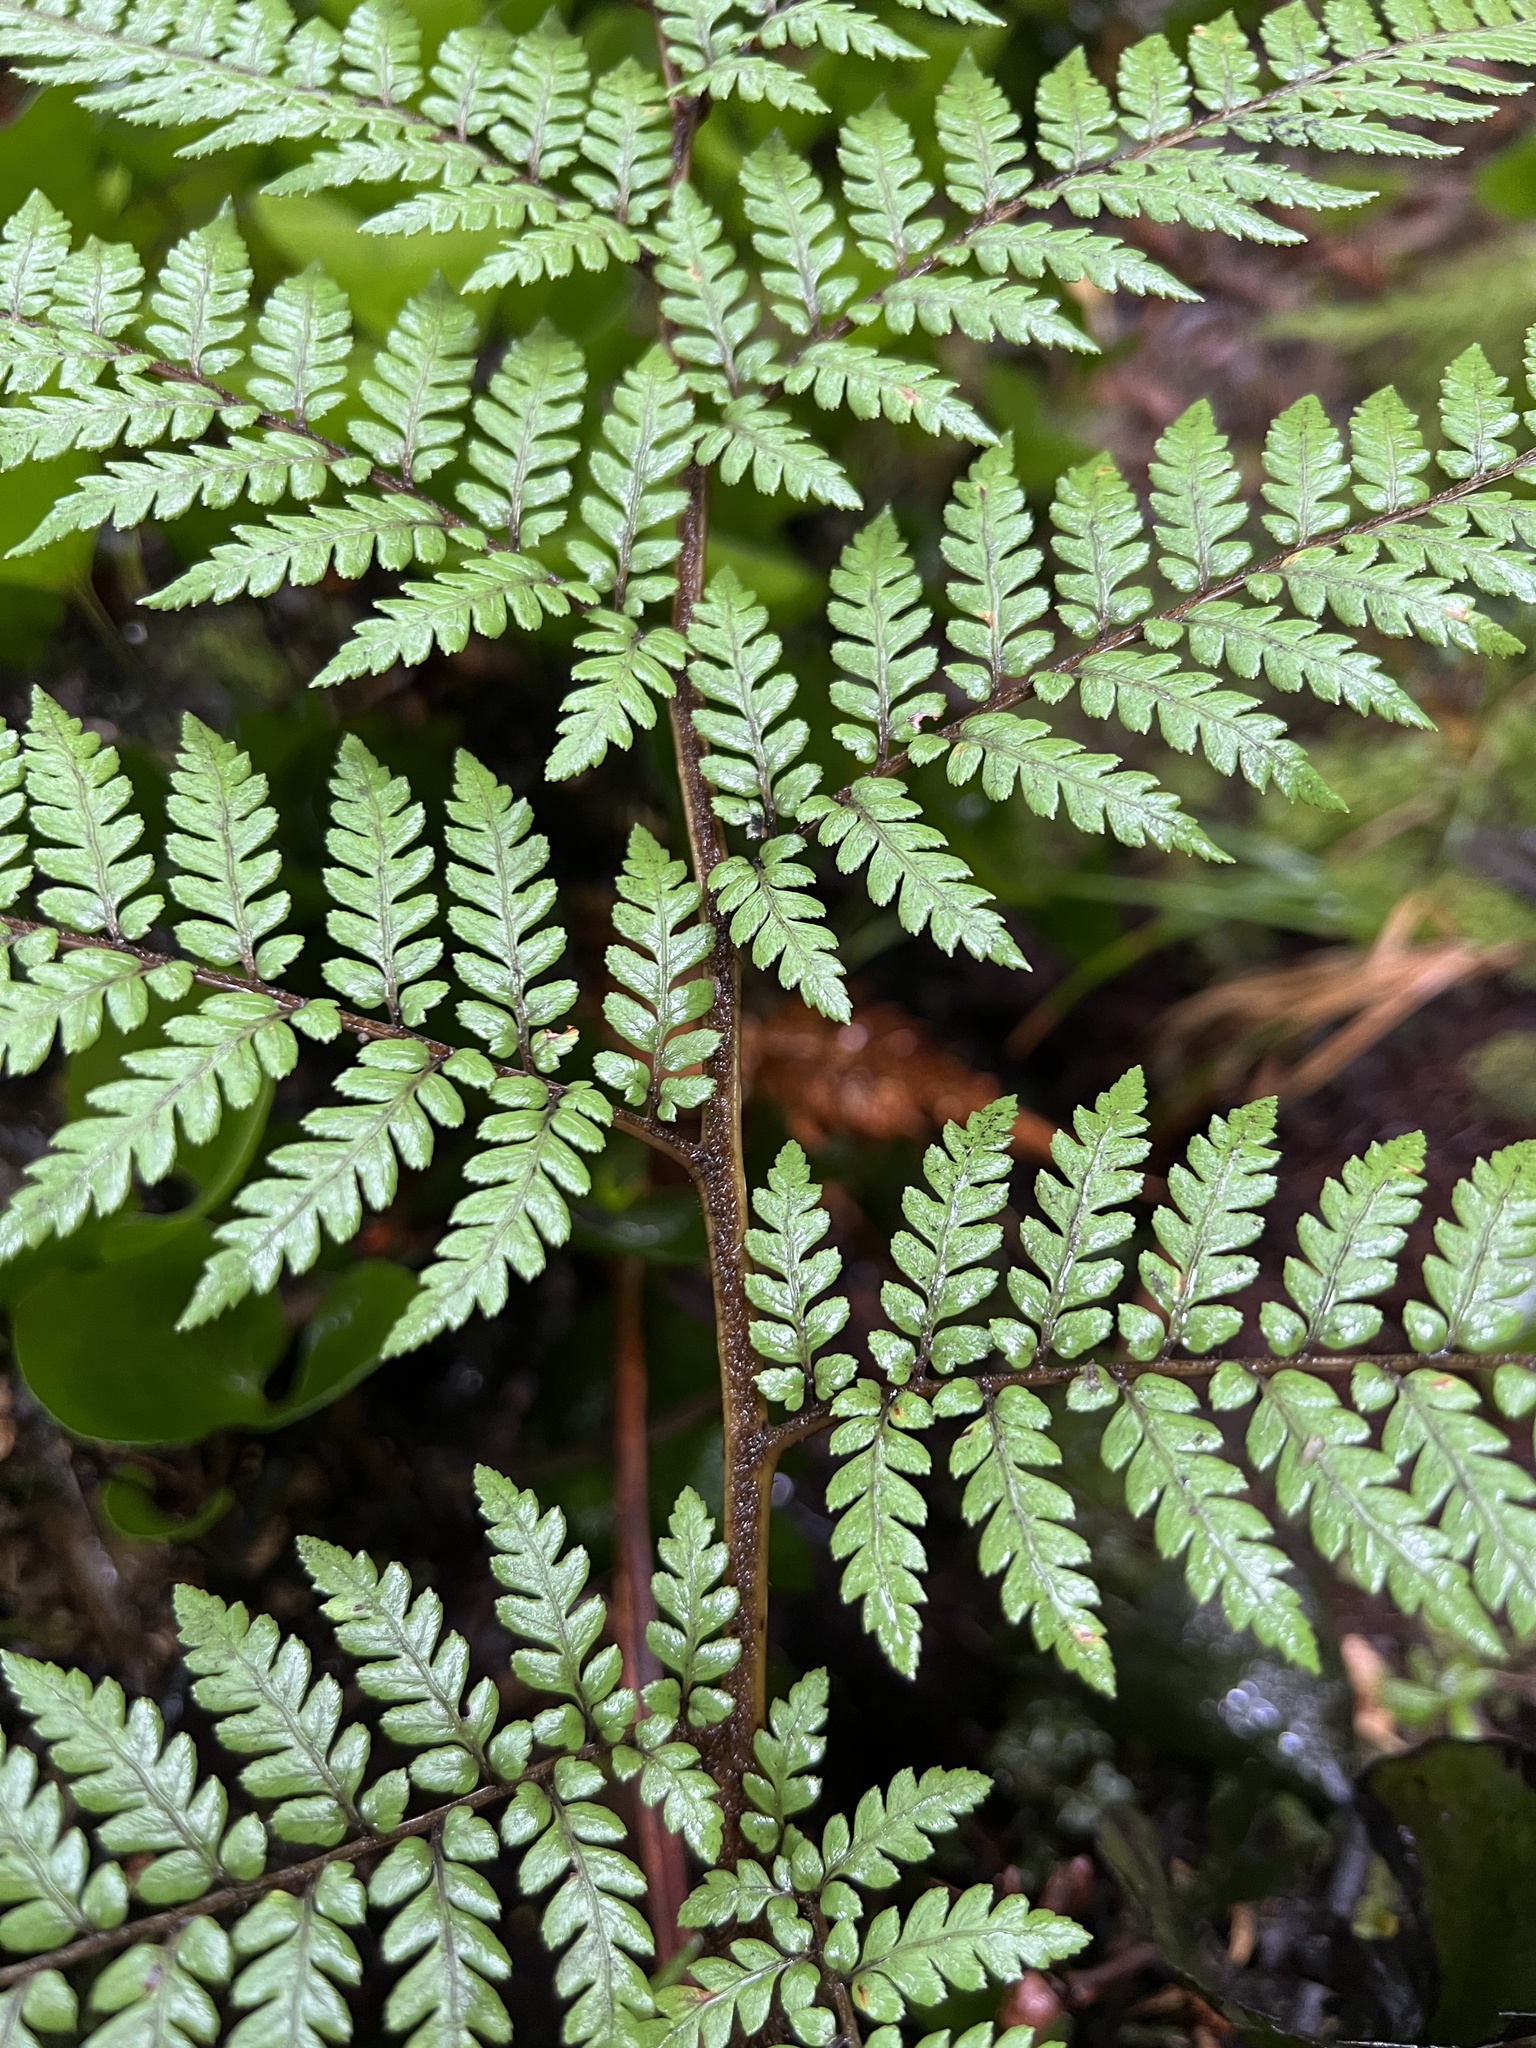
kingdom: Plantae
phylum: Tracheophyta
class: Polypodiopsida
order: Cyatheales
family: Dicksoniaceae
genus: Dicksonia
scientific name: Dicksonia lanata
